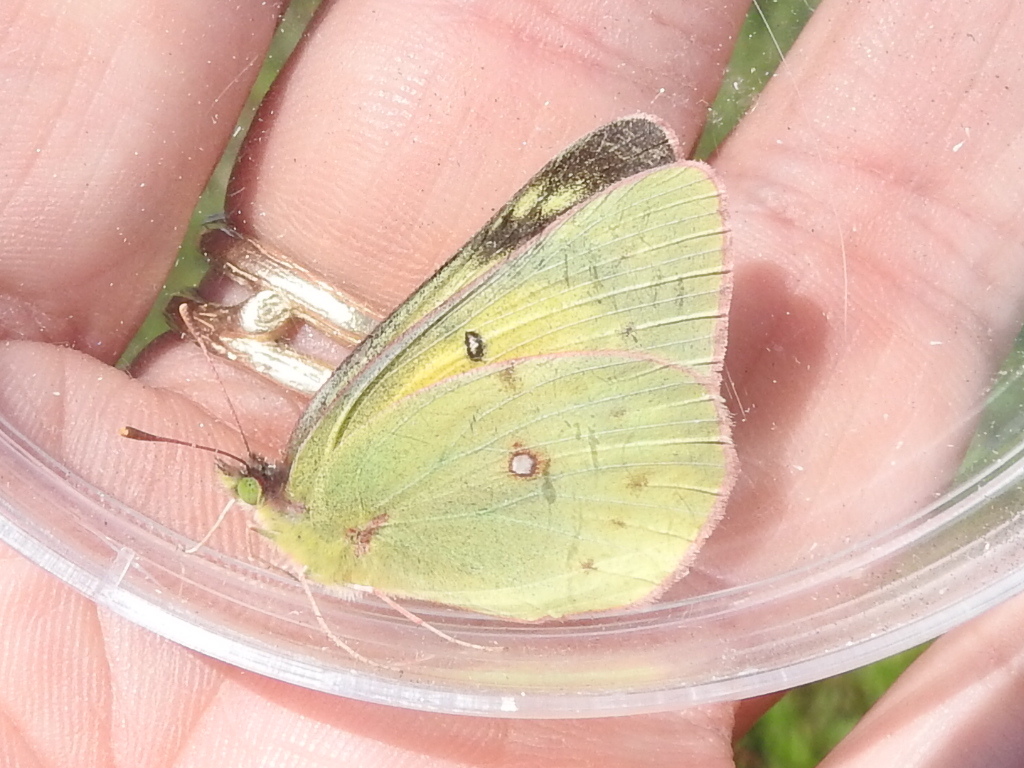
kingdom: Animalia
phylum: Arthropoda
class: Insecta
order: Lepidoptera
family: Pieridae
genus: Colias
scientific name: Colias eurytheme
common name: Alfalfa butterfly
